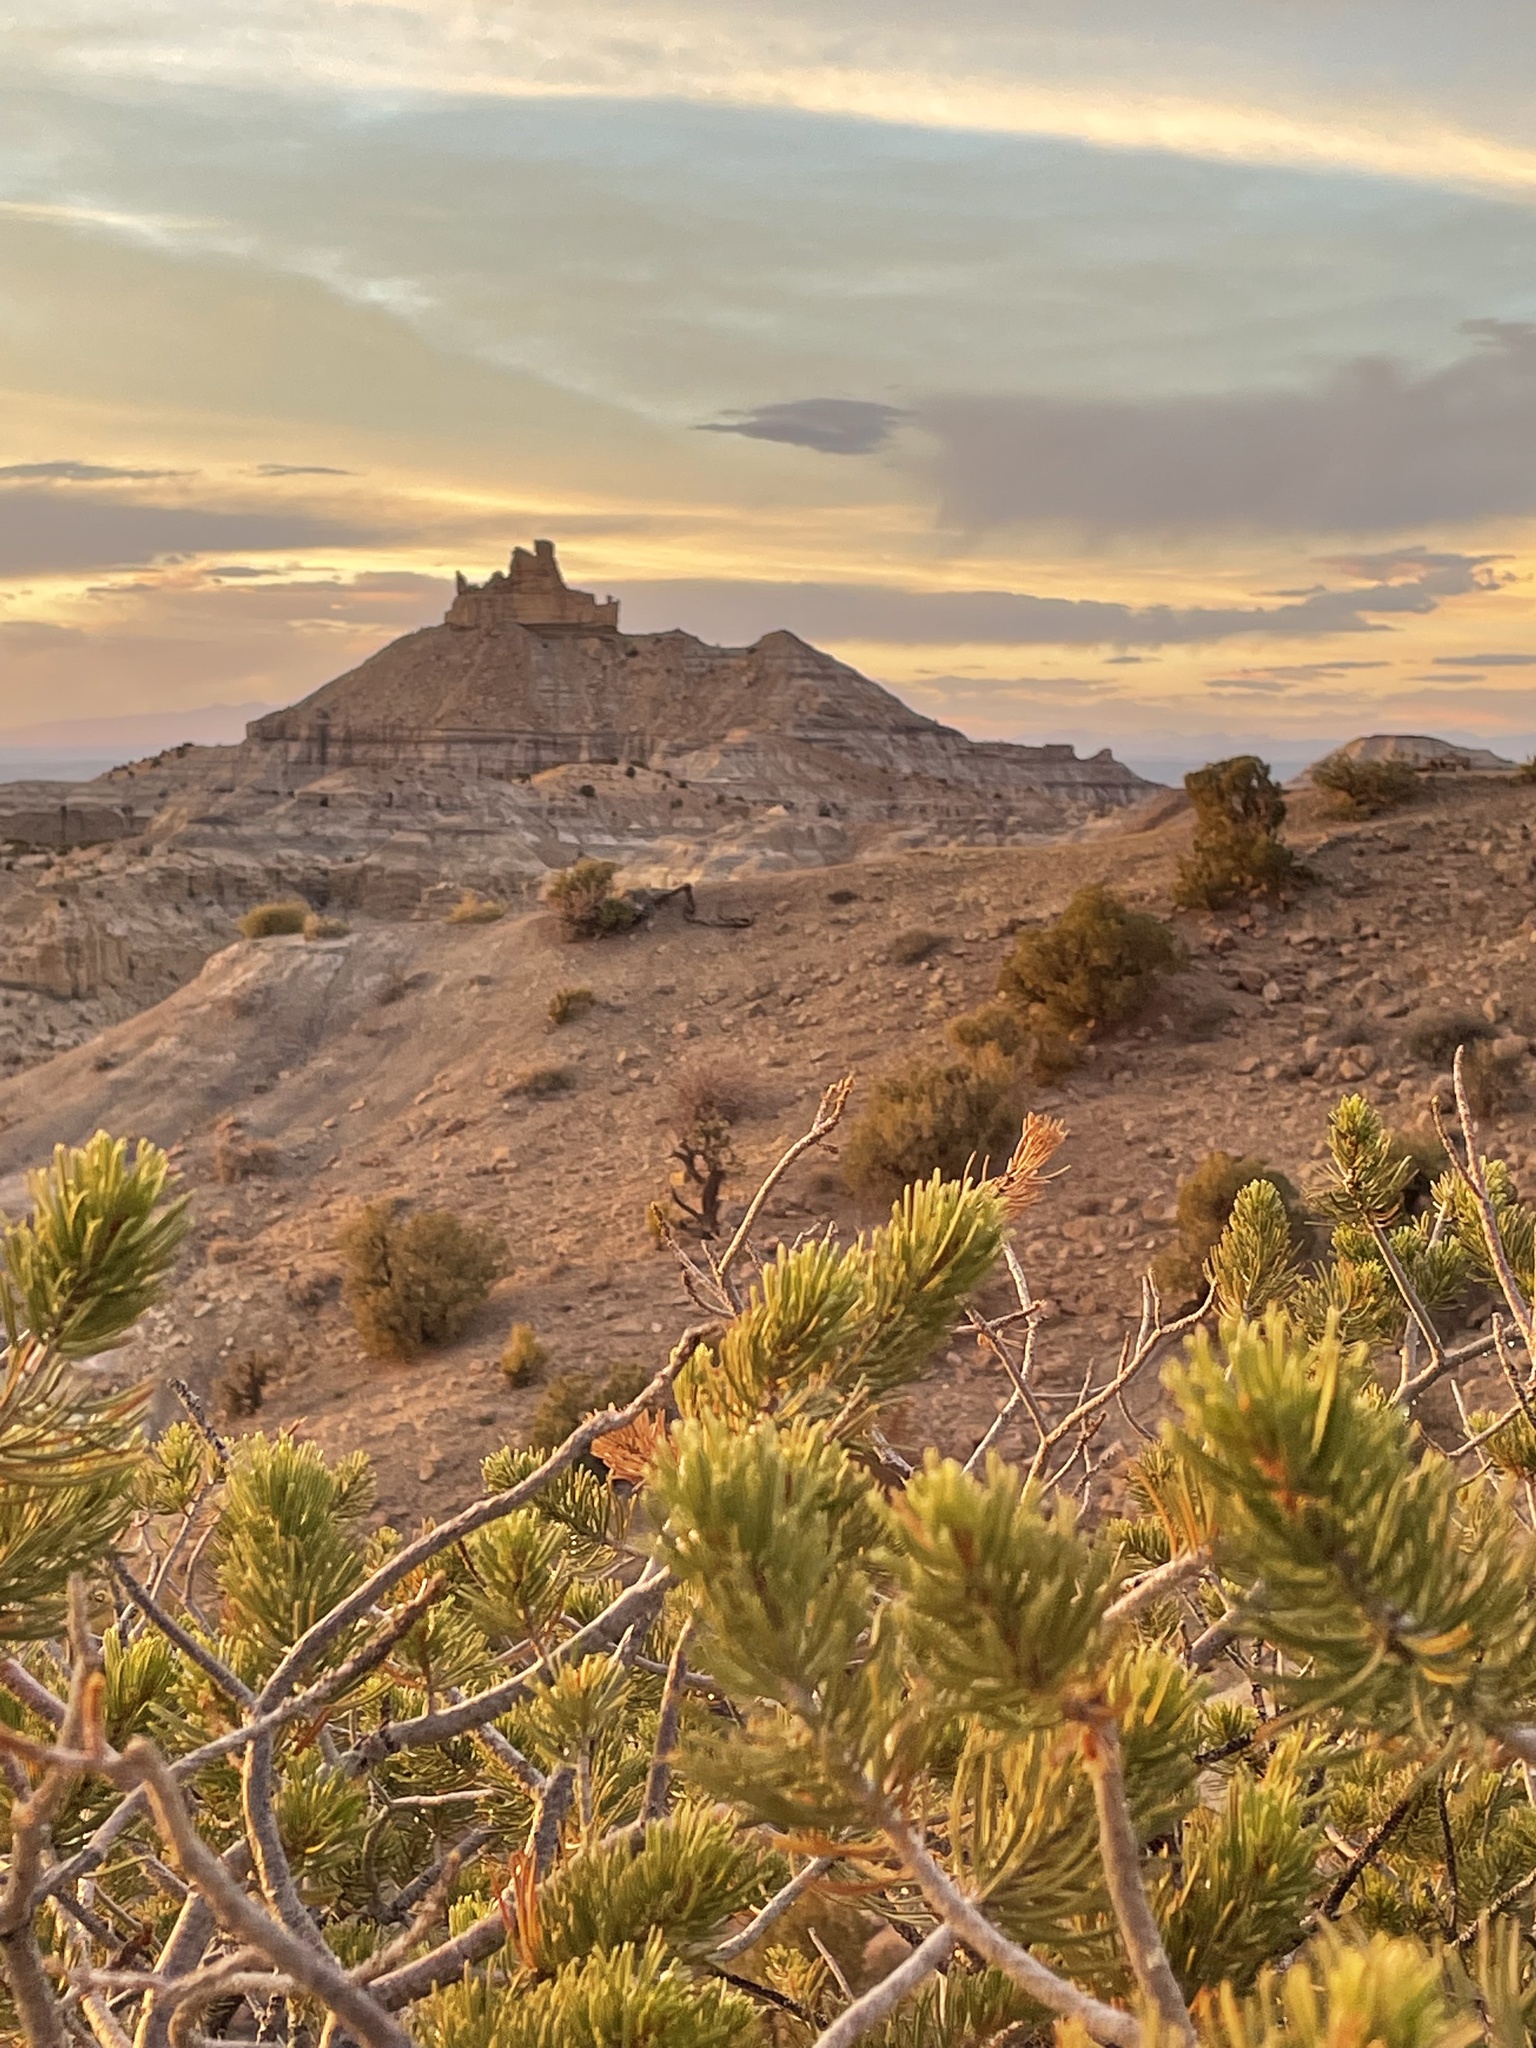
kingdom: Plantae
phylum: Tracheophyta
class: Pinopsida
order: Pinales
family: Pinaceae
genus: Pinus
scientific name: Pinus edulis
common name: Colorado pinyon
